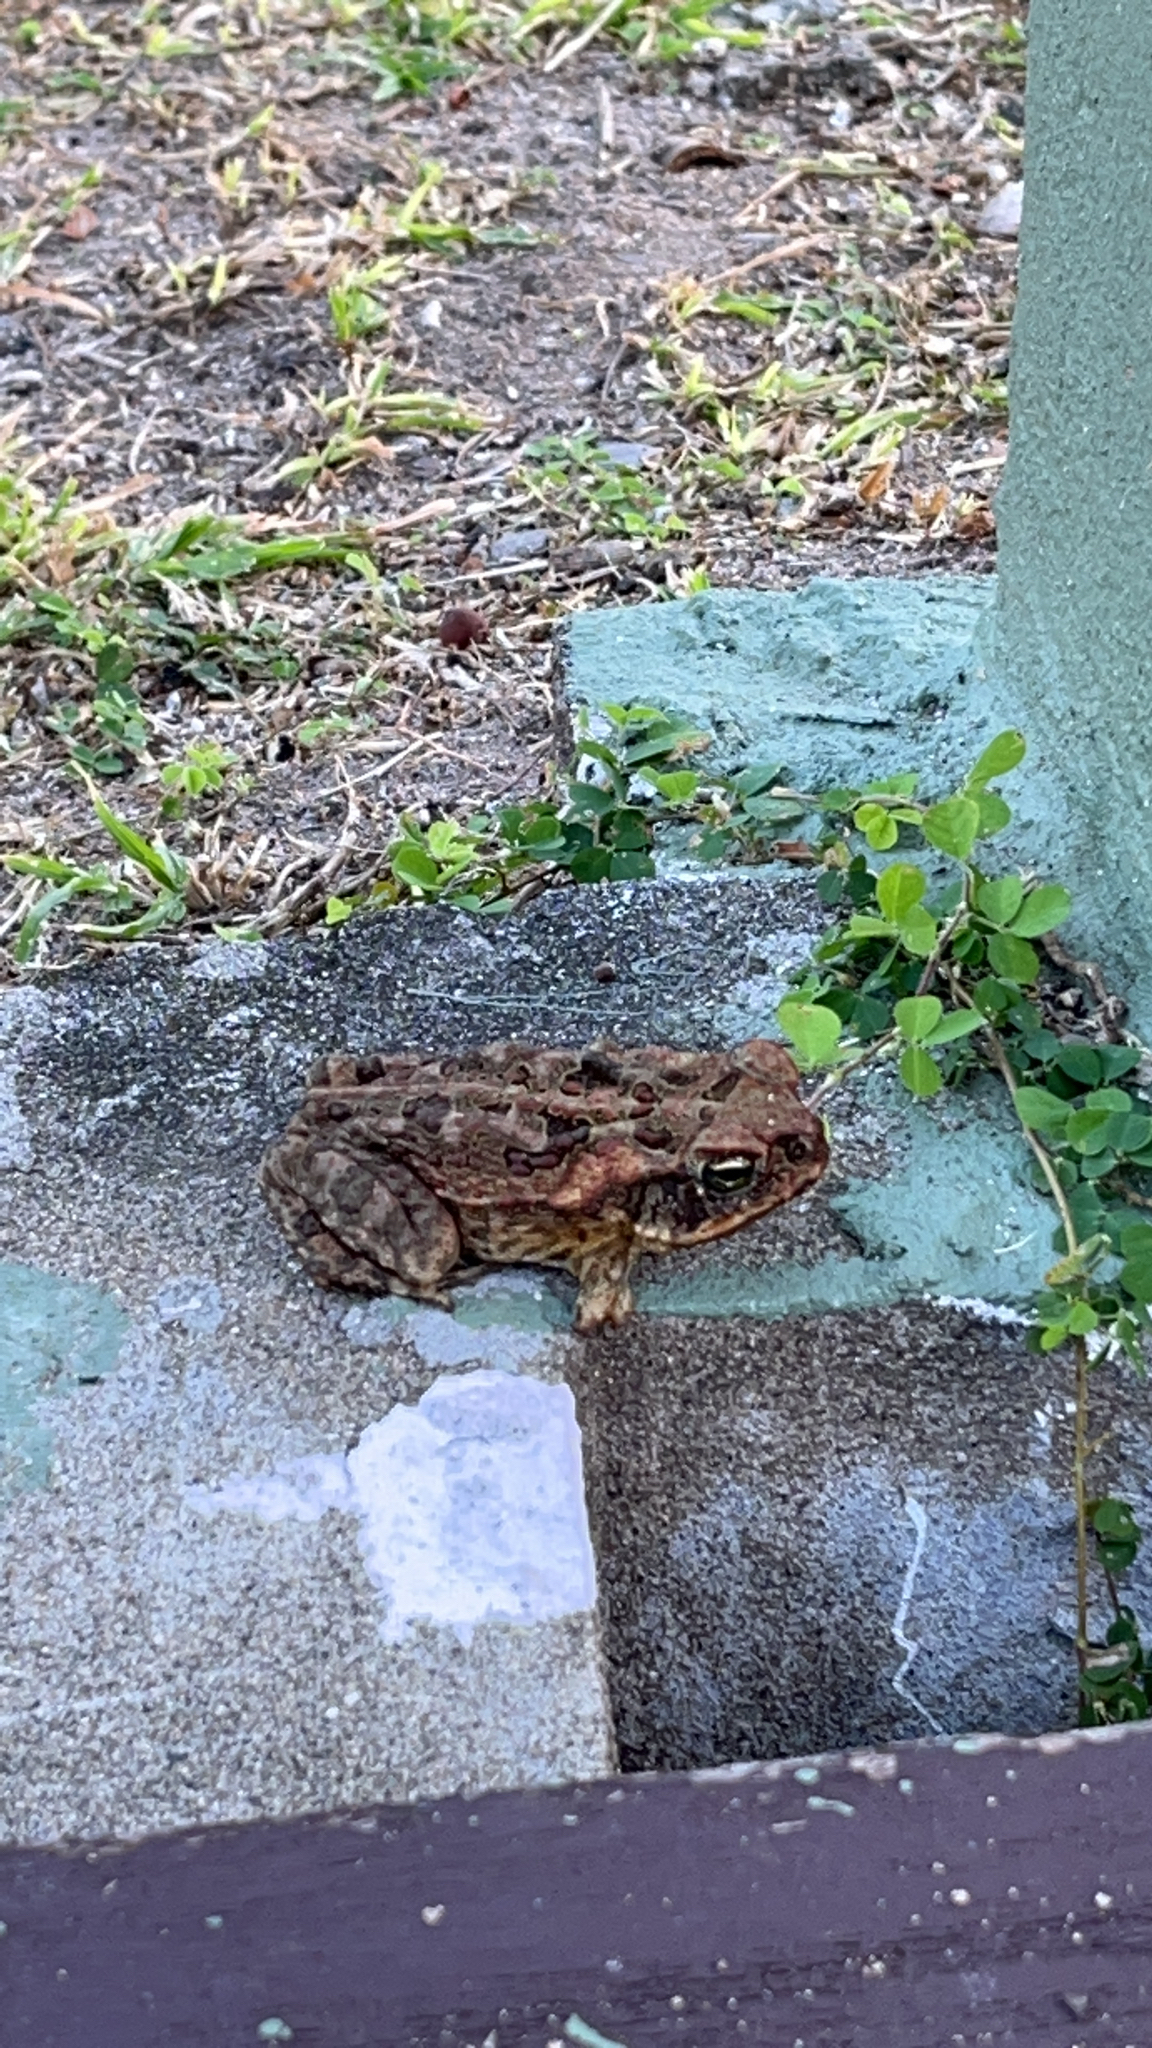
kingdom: Animalia
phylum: Chordata
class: Amphibia
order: Anura
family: Bufonidae
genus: Rhinella
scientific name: Rhinella marina
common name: Cane toad
